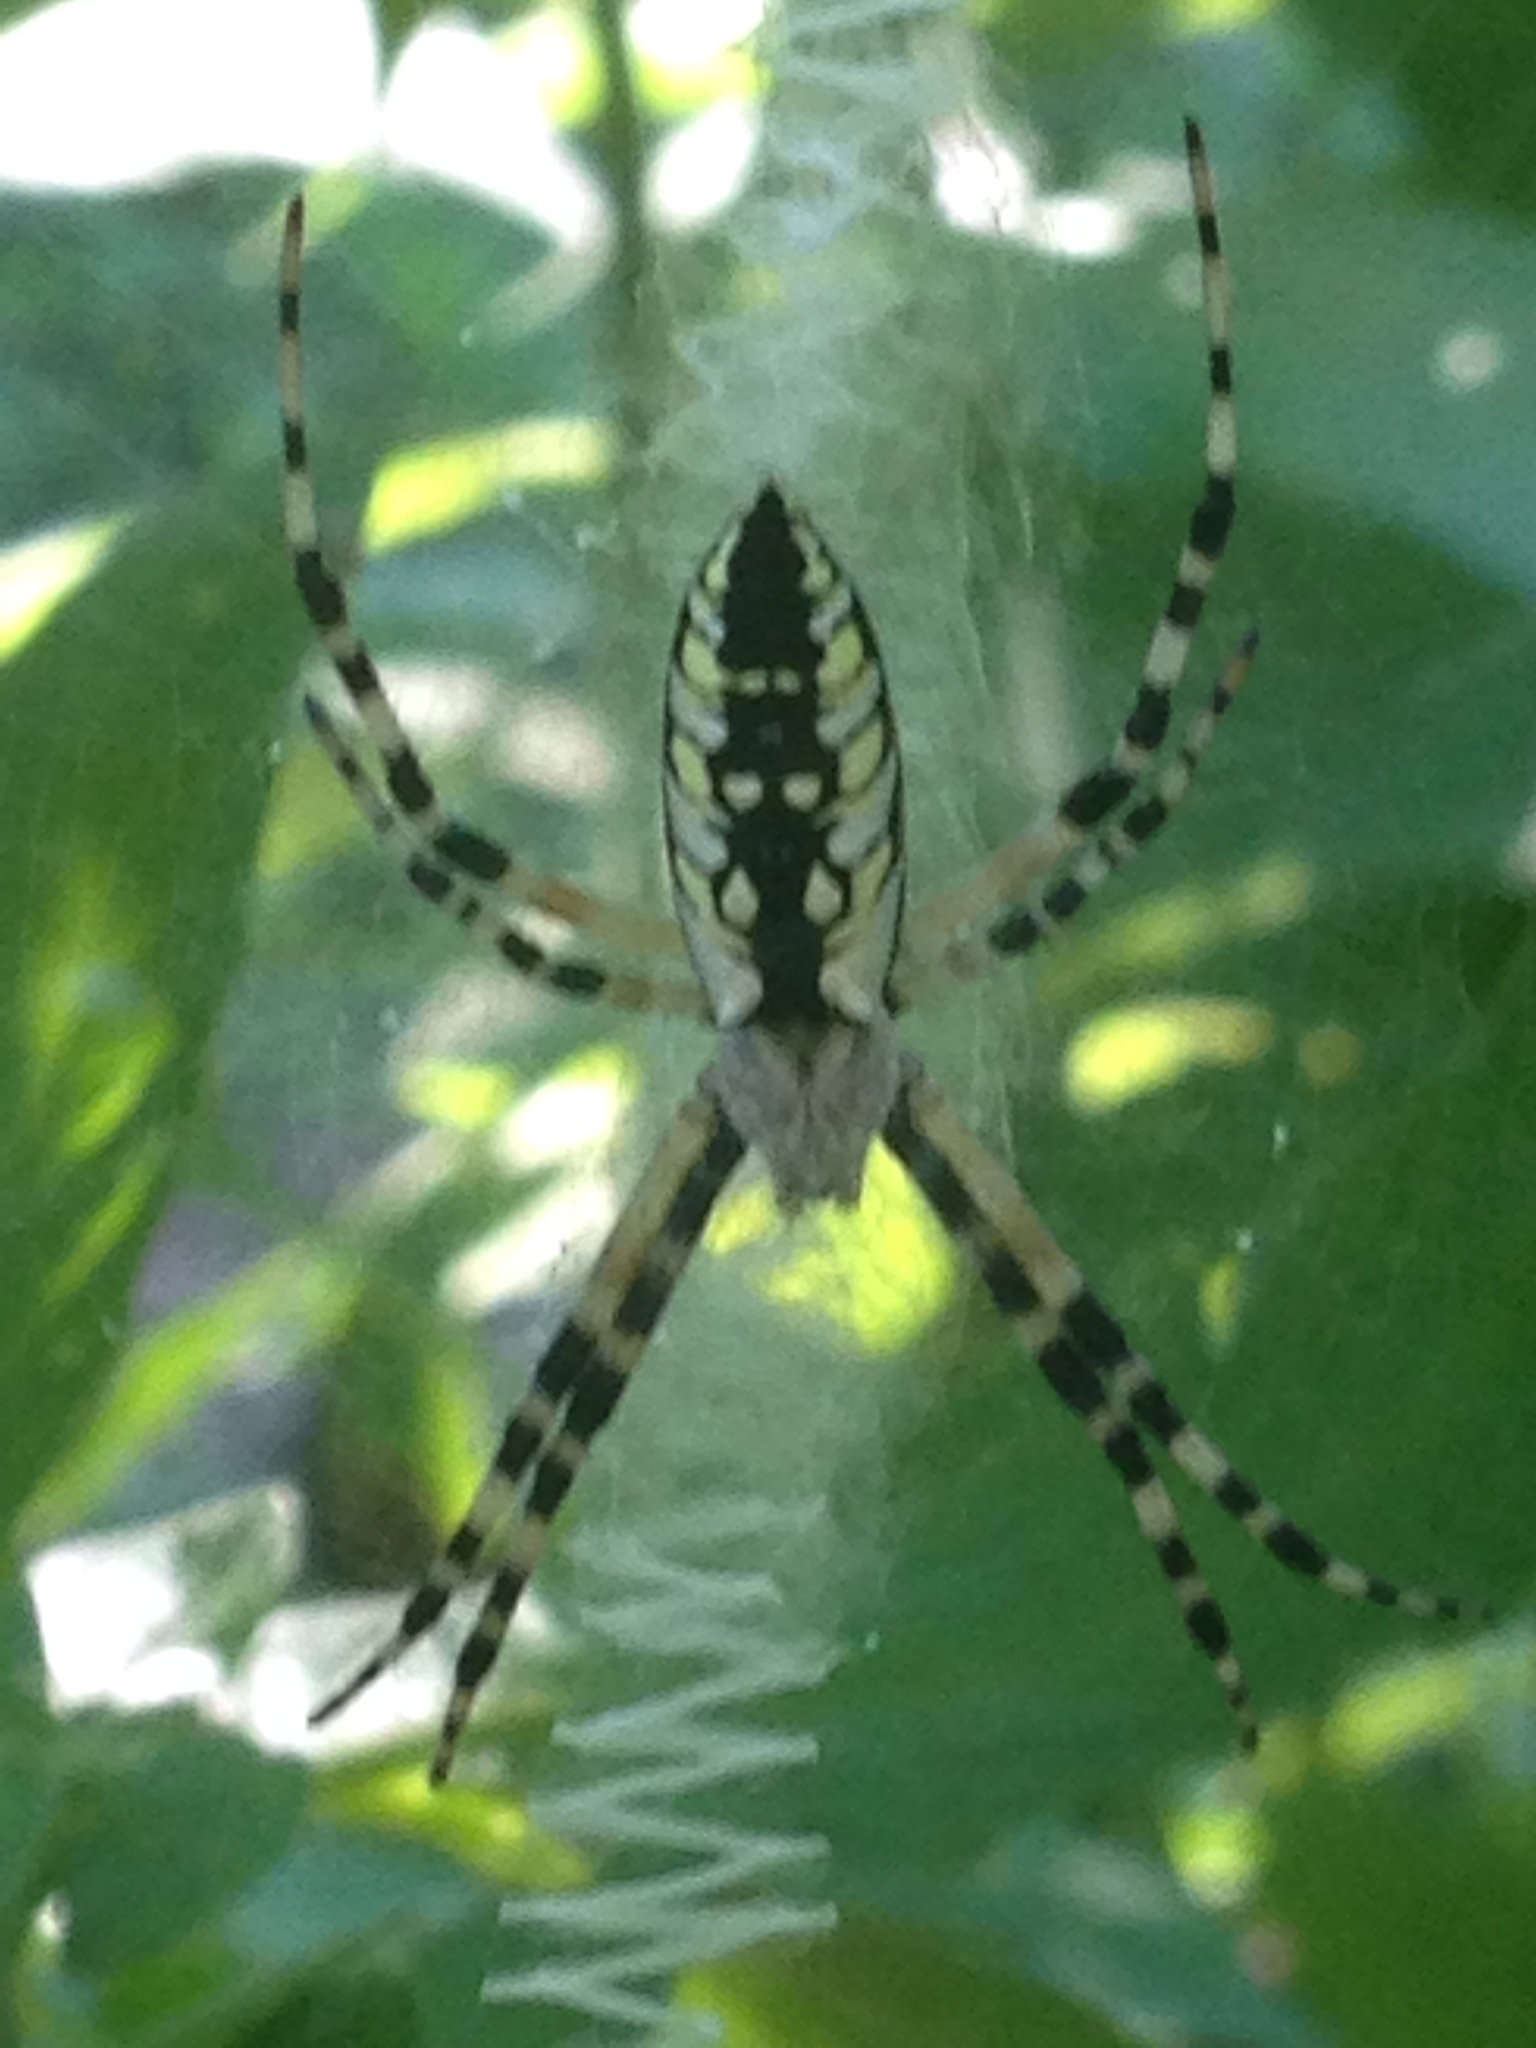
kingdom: Animalia
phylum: Arthropoda
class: Arachnida
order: Araneae
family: Araneidae
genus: Argiope
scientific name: Argiope aurantia
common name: Orb weavers
